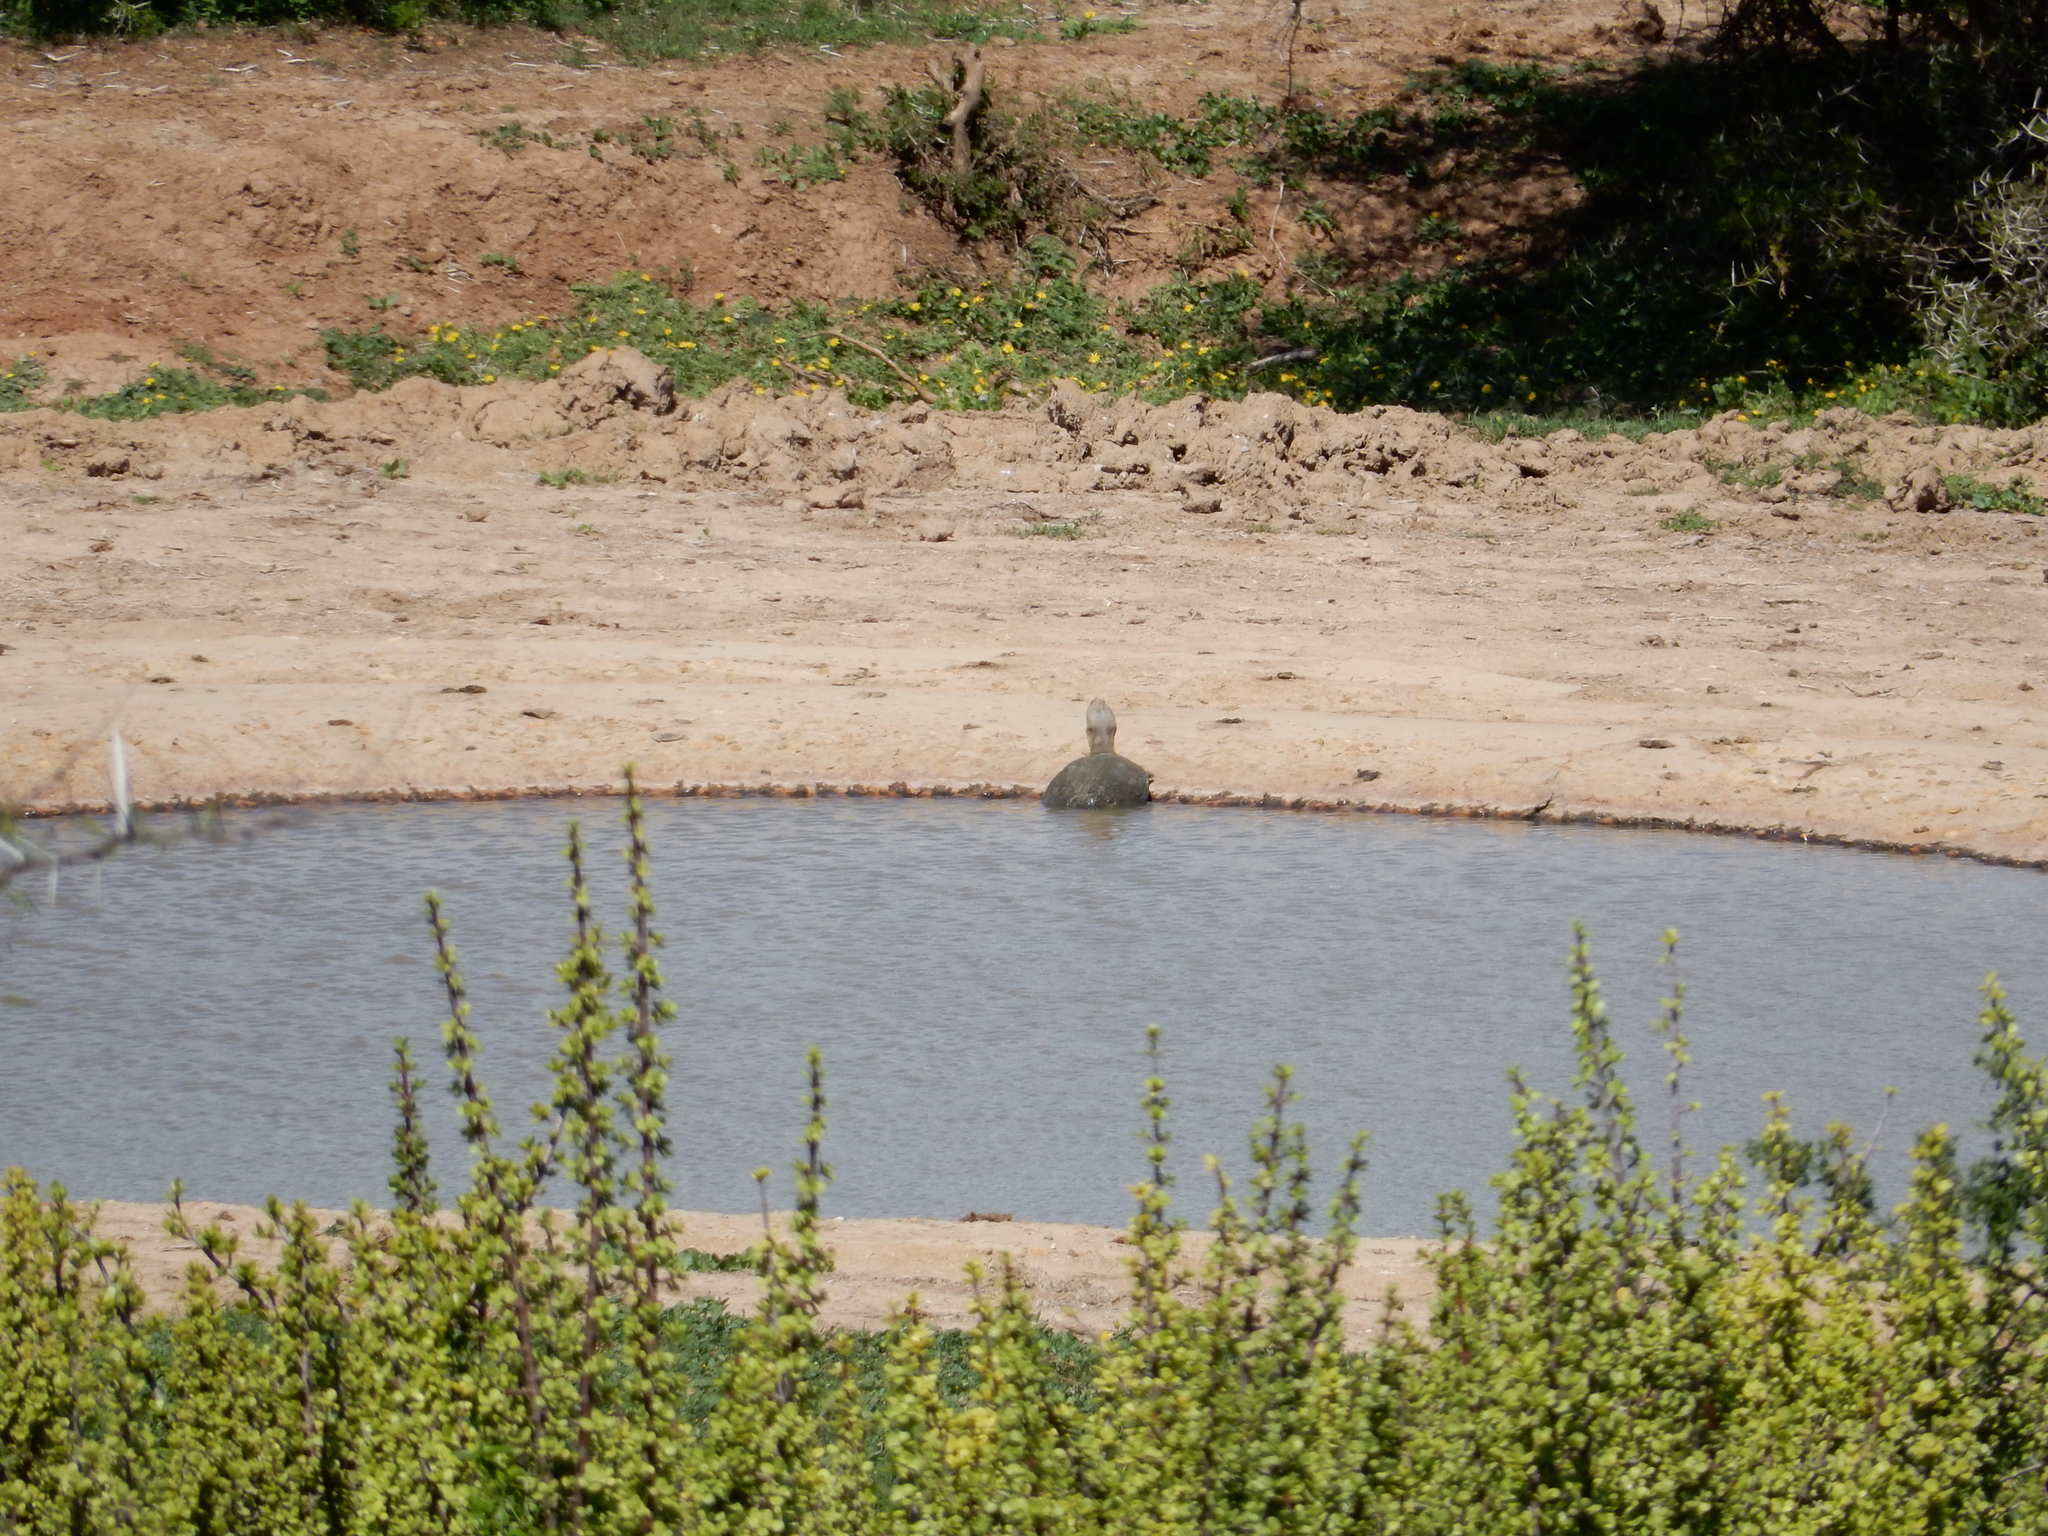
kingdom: Animalia
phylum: Chordata
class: Testudines
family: Pelomedusidae
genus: Pelomedusa
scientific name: Pelomedusa galeata
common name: South african helmeted terrapin
